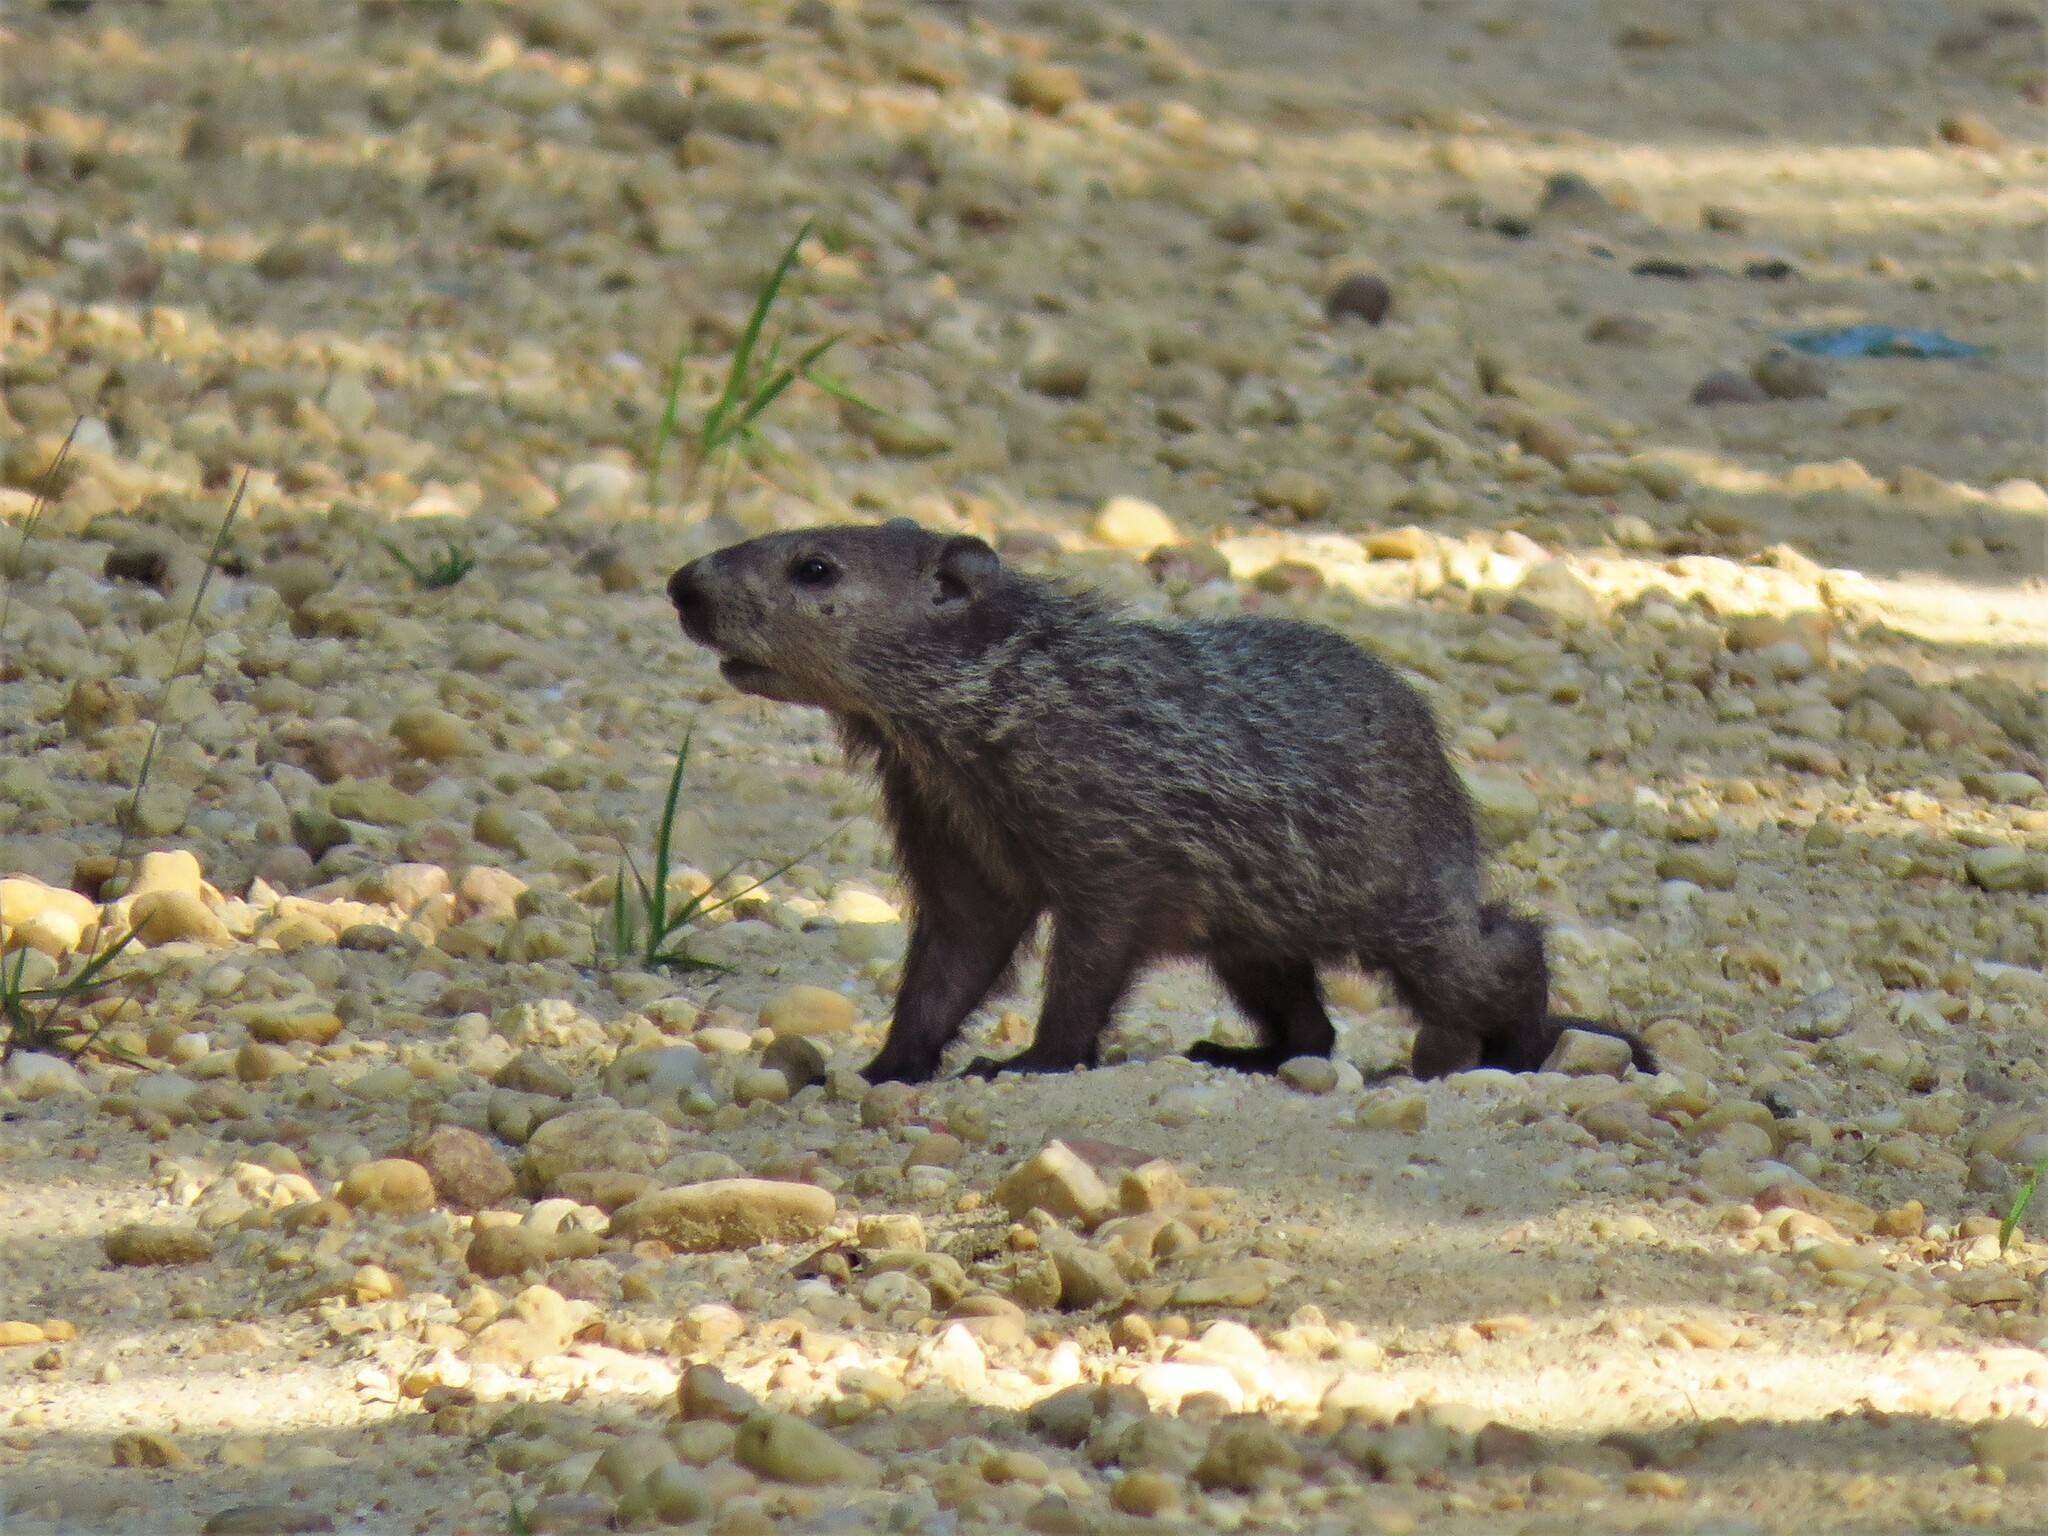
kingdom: Animalia
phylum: Chordata
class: Mammalia
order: Rodentia
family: Sciuridae
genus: Marmota
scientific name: Marmota monax
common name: Groundhog
